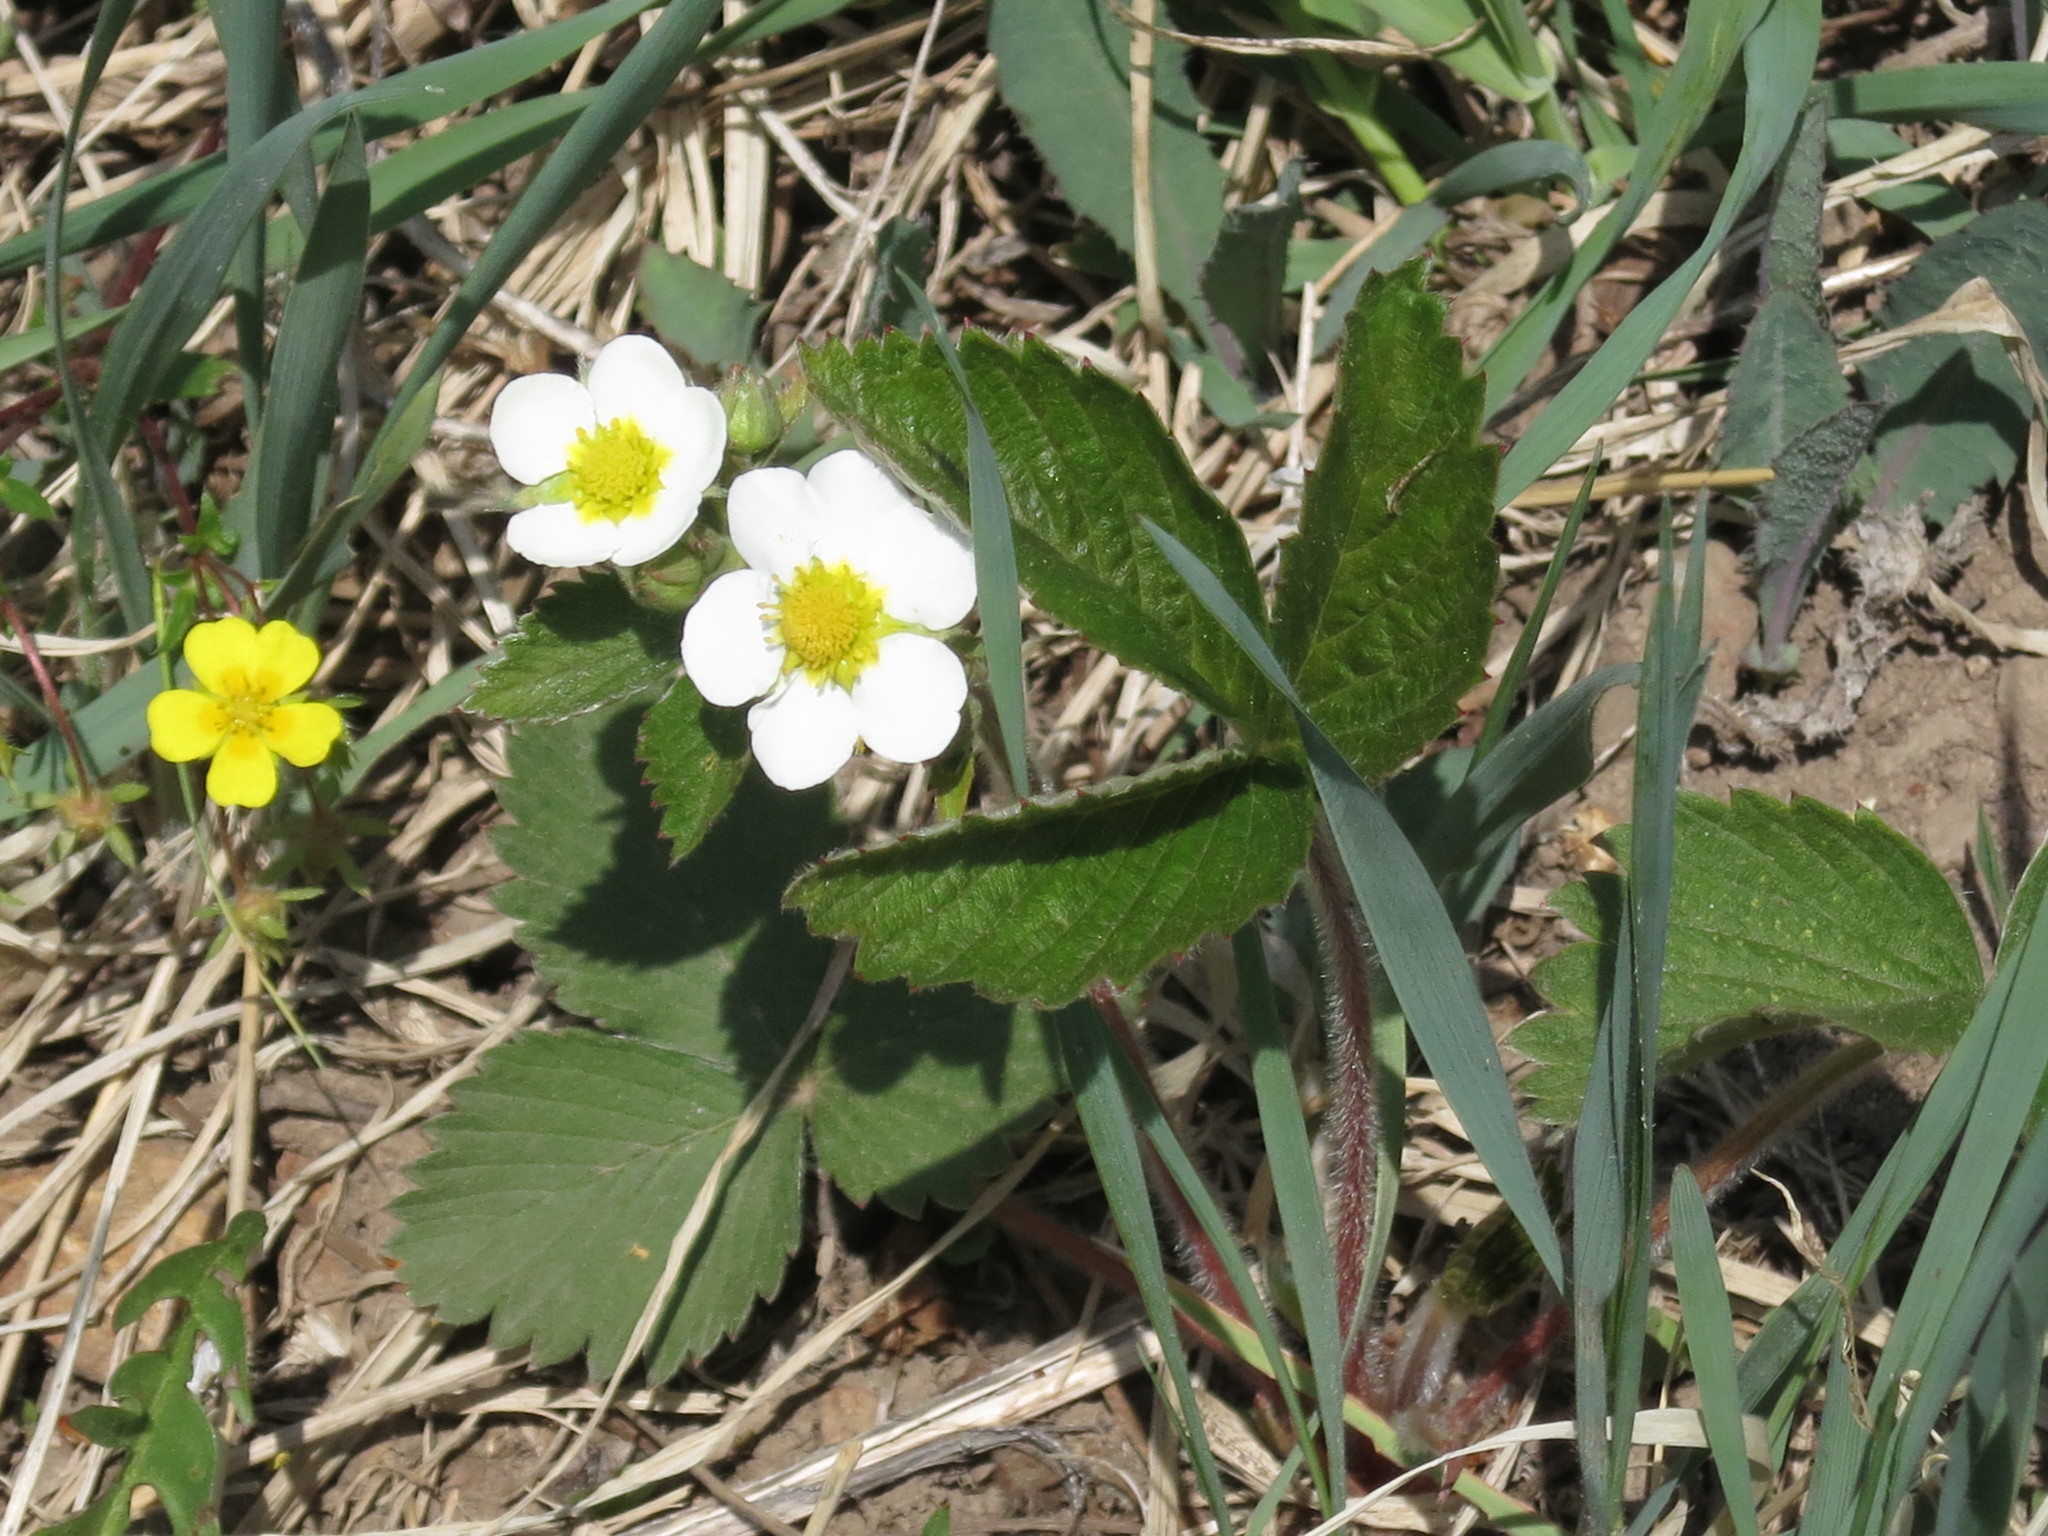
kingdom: Plantae
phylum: Tracheophyta
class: Magnoliopsida
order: Rosales
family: Rosaceae
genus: Fragaria
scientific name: Fragaria orientalis
